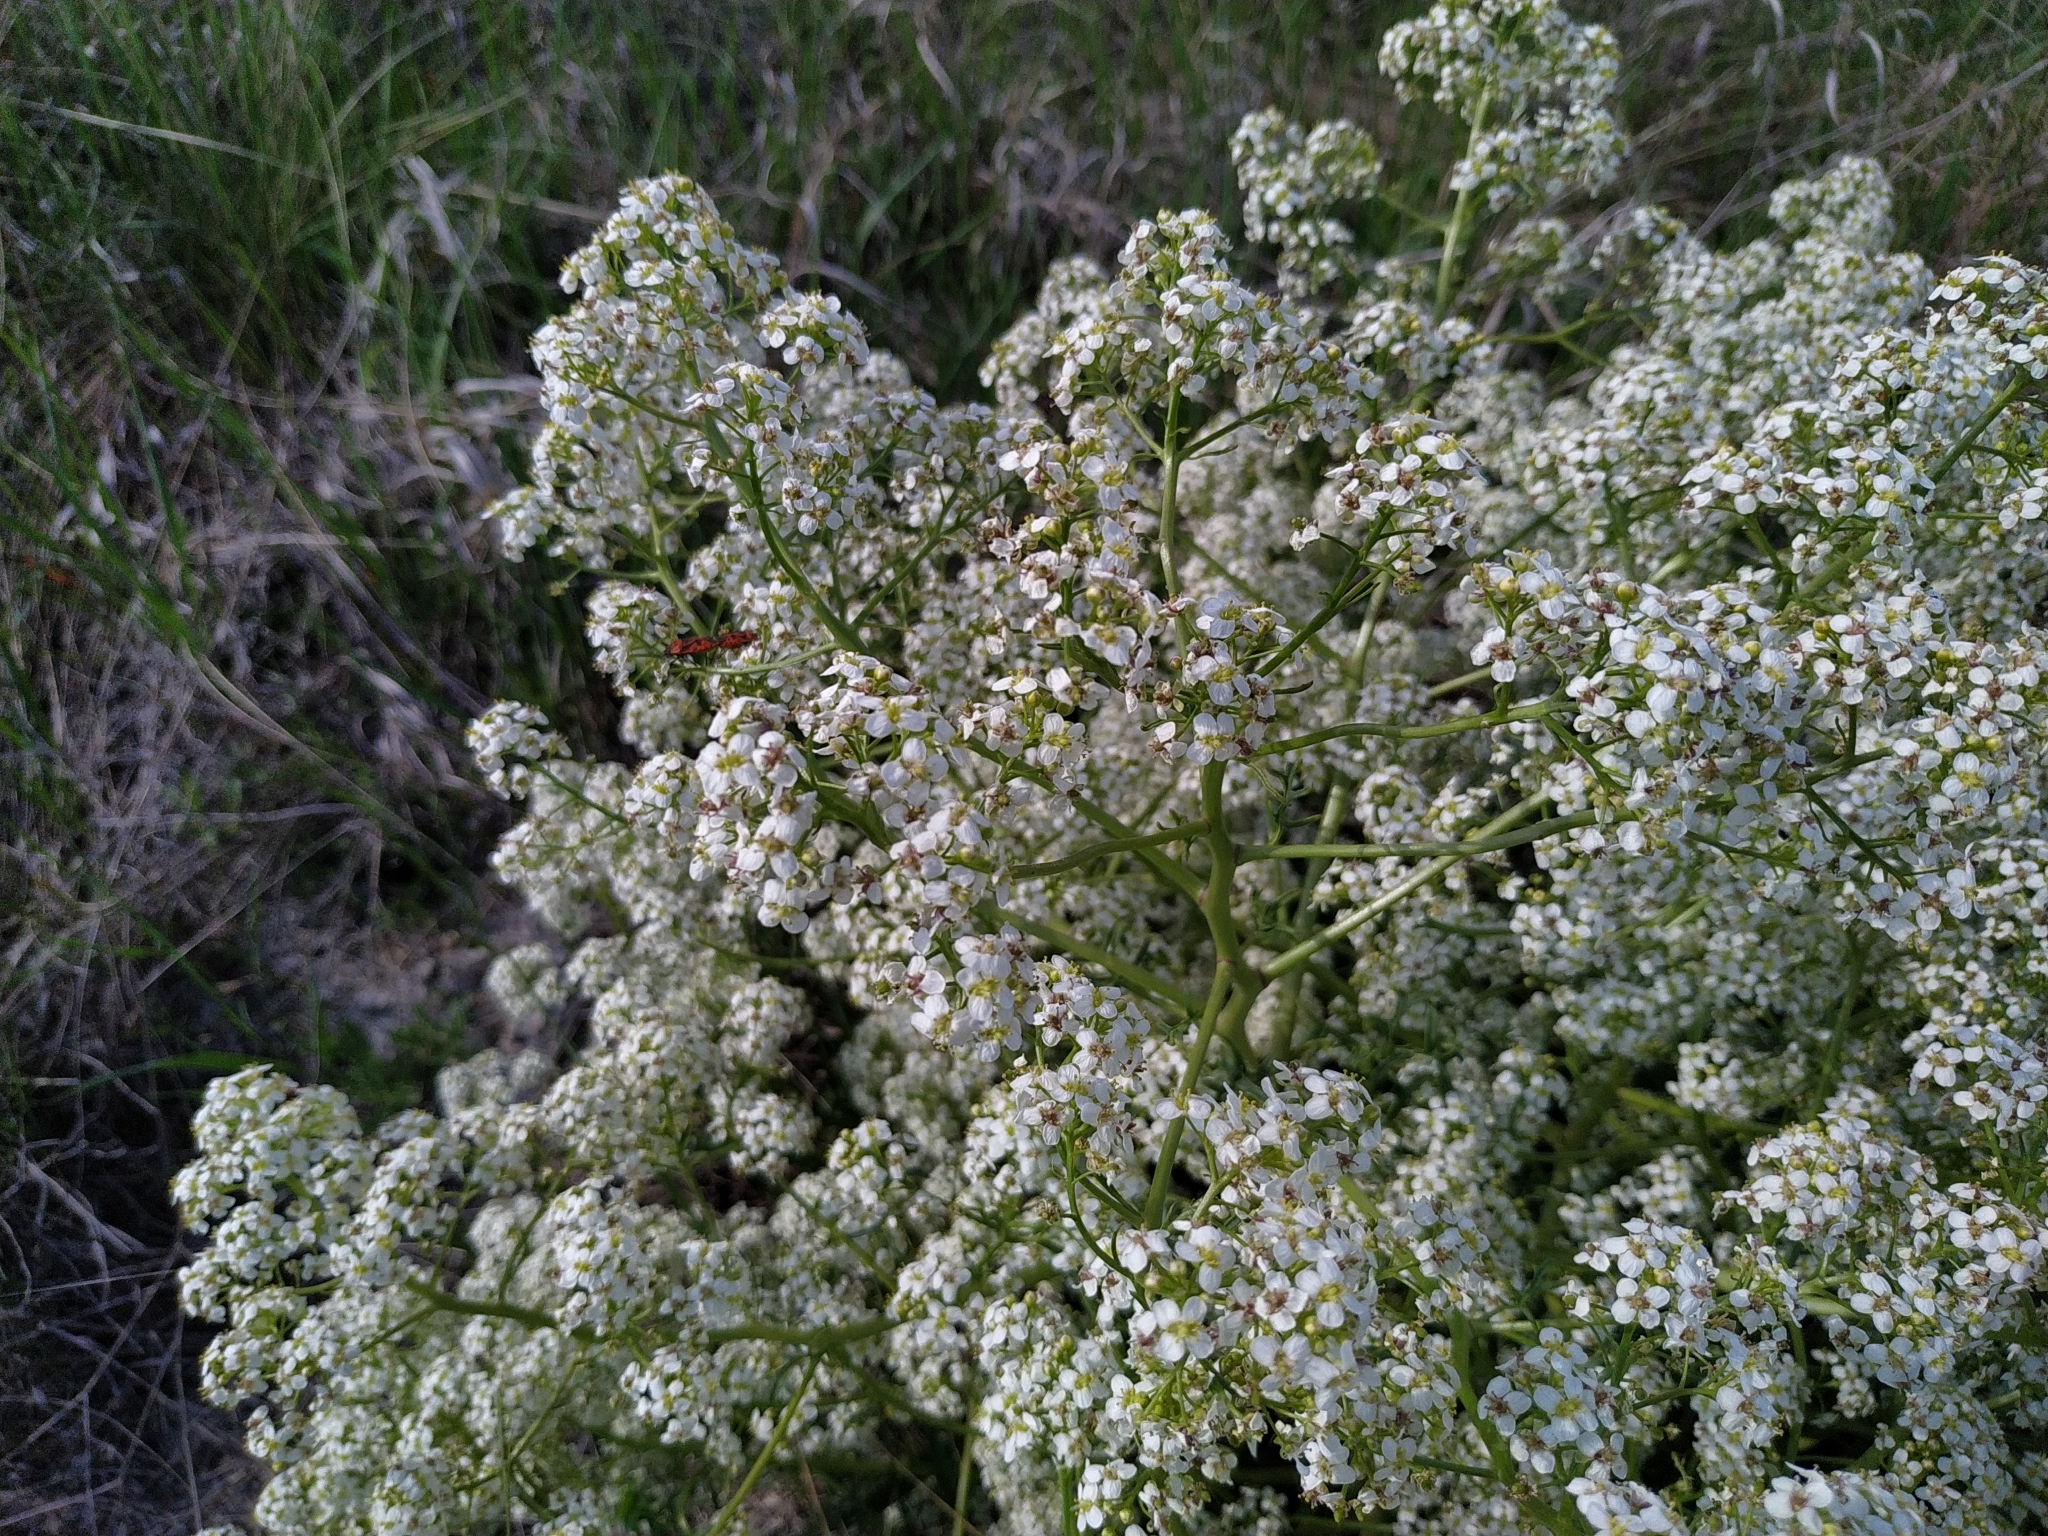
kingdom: Plantae
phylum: Tracheophyta
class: Magnoliopsida
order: Brassicales
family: Brassicaceae
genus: Crambe
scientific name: Crambe tataria
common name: Tartarian breadplant
